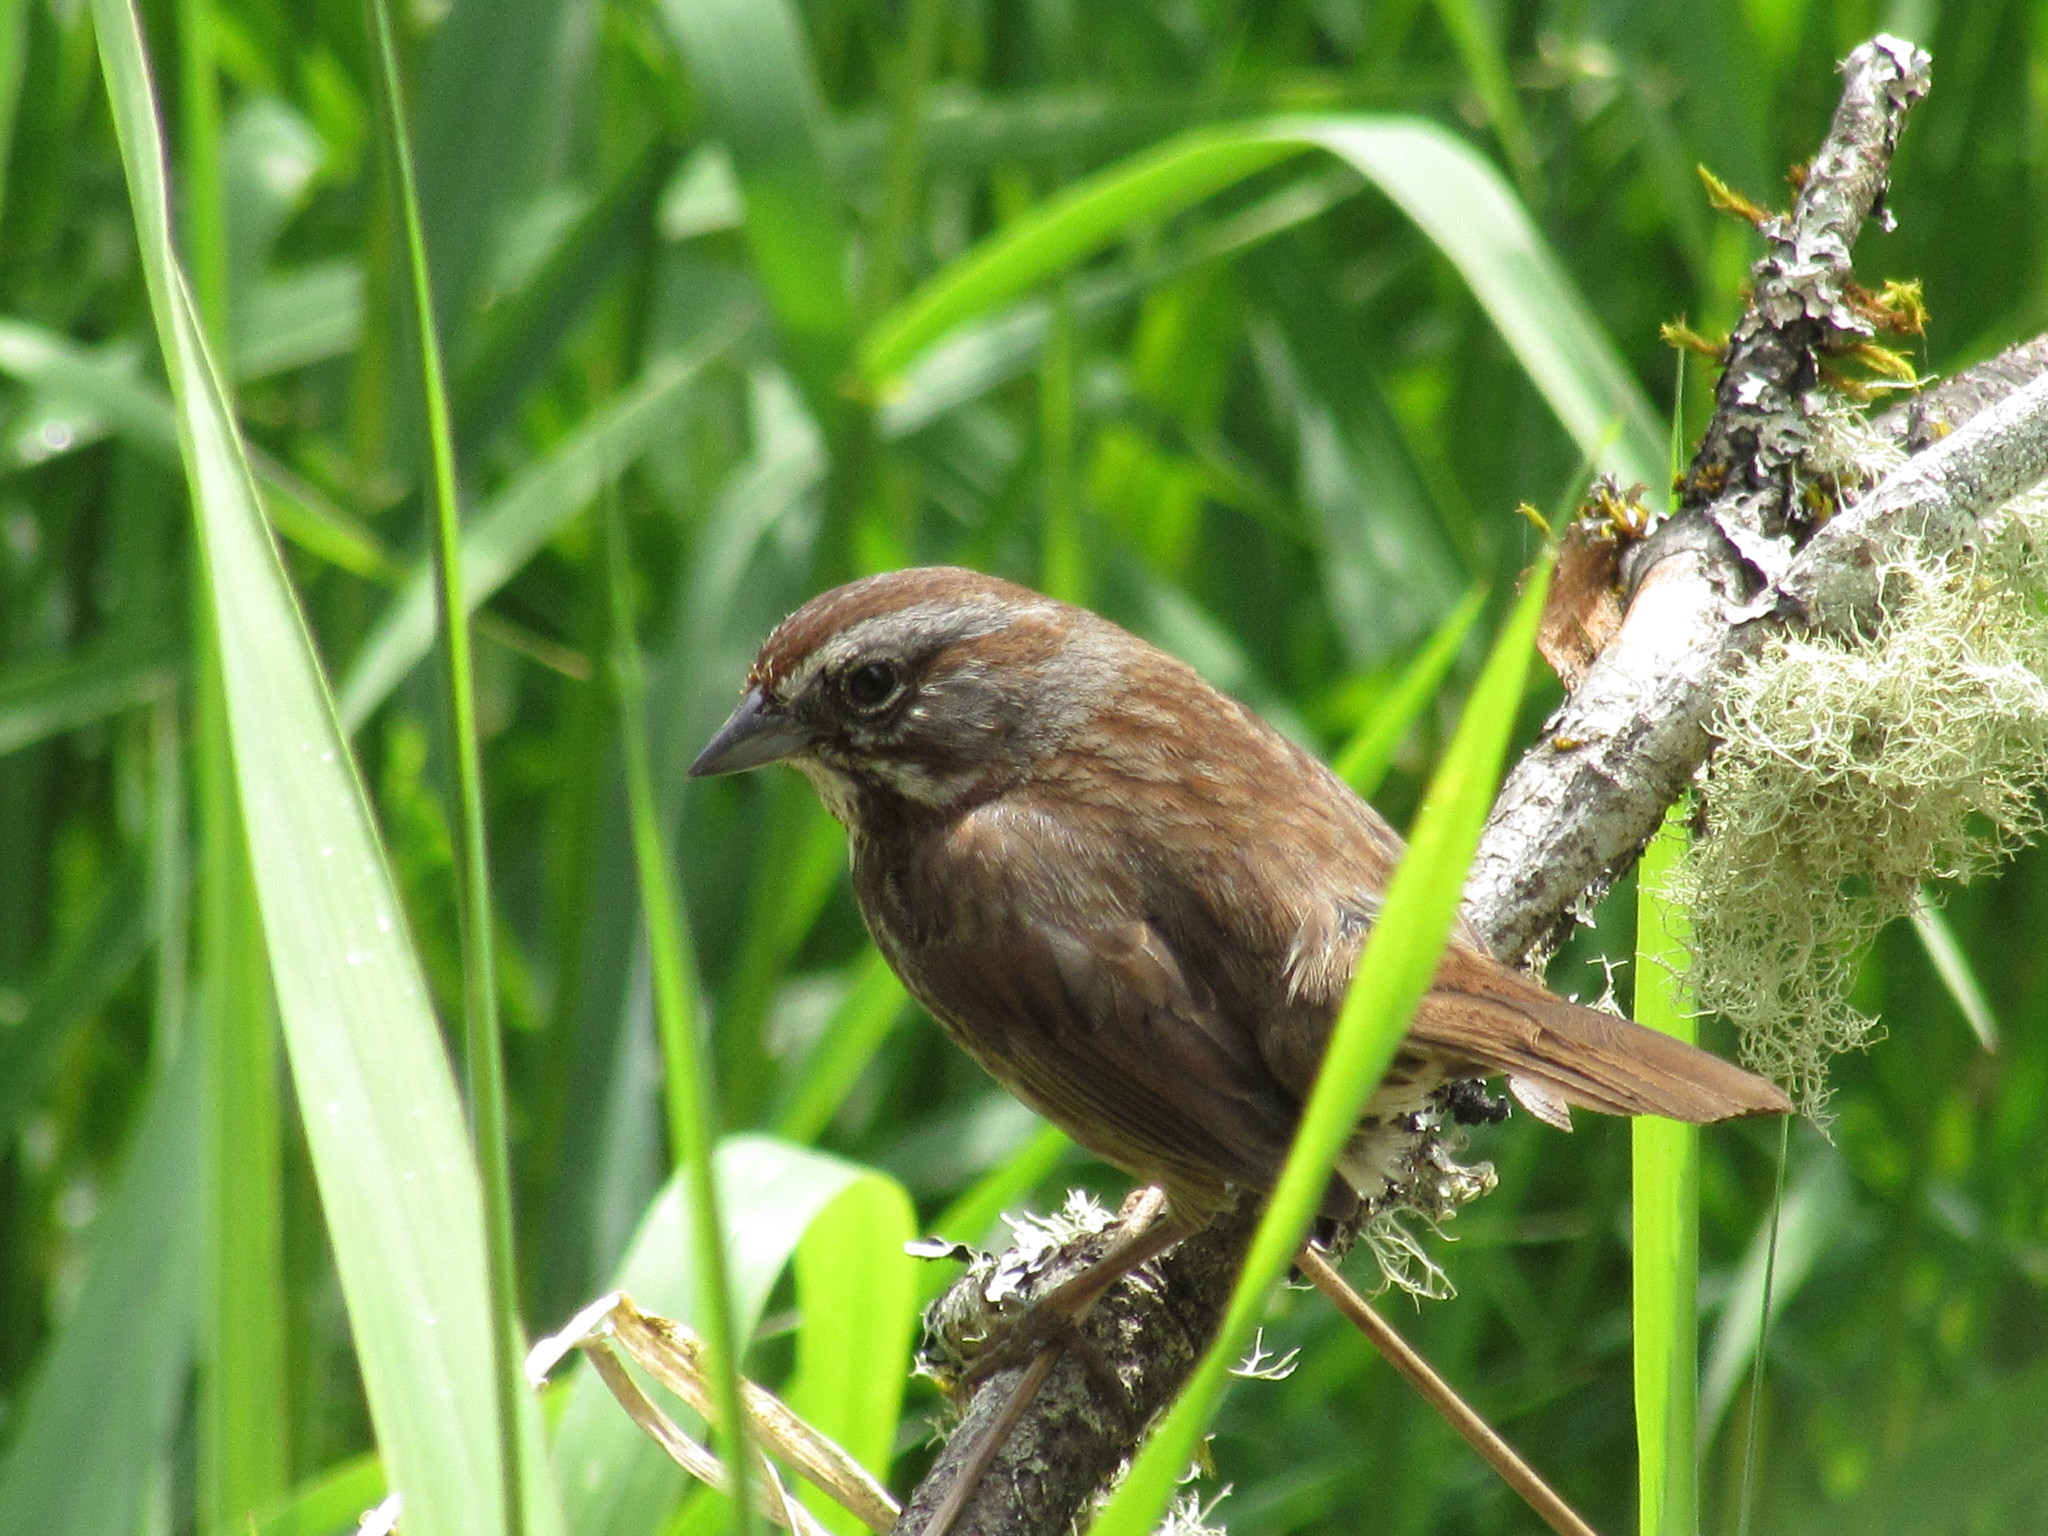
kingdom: Animalia
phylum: Chordata
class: Aves
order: Passeriformes
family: Passerellidae
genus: Melospiza
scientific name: Melospiza melodia
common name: Song sparrow
